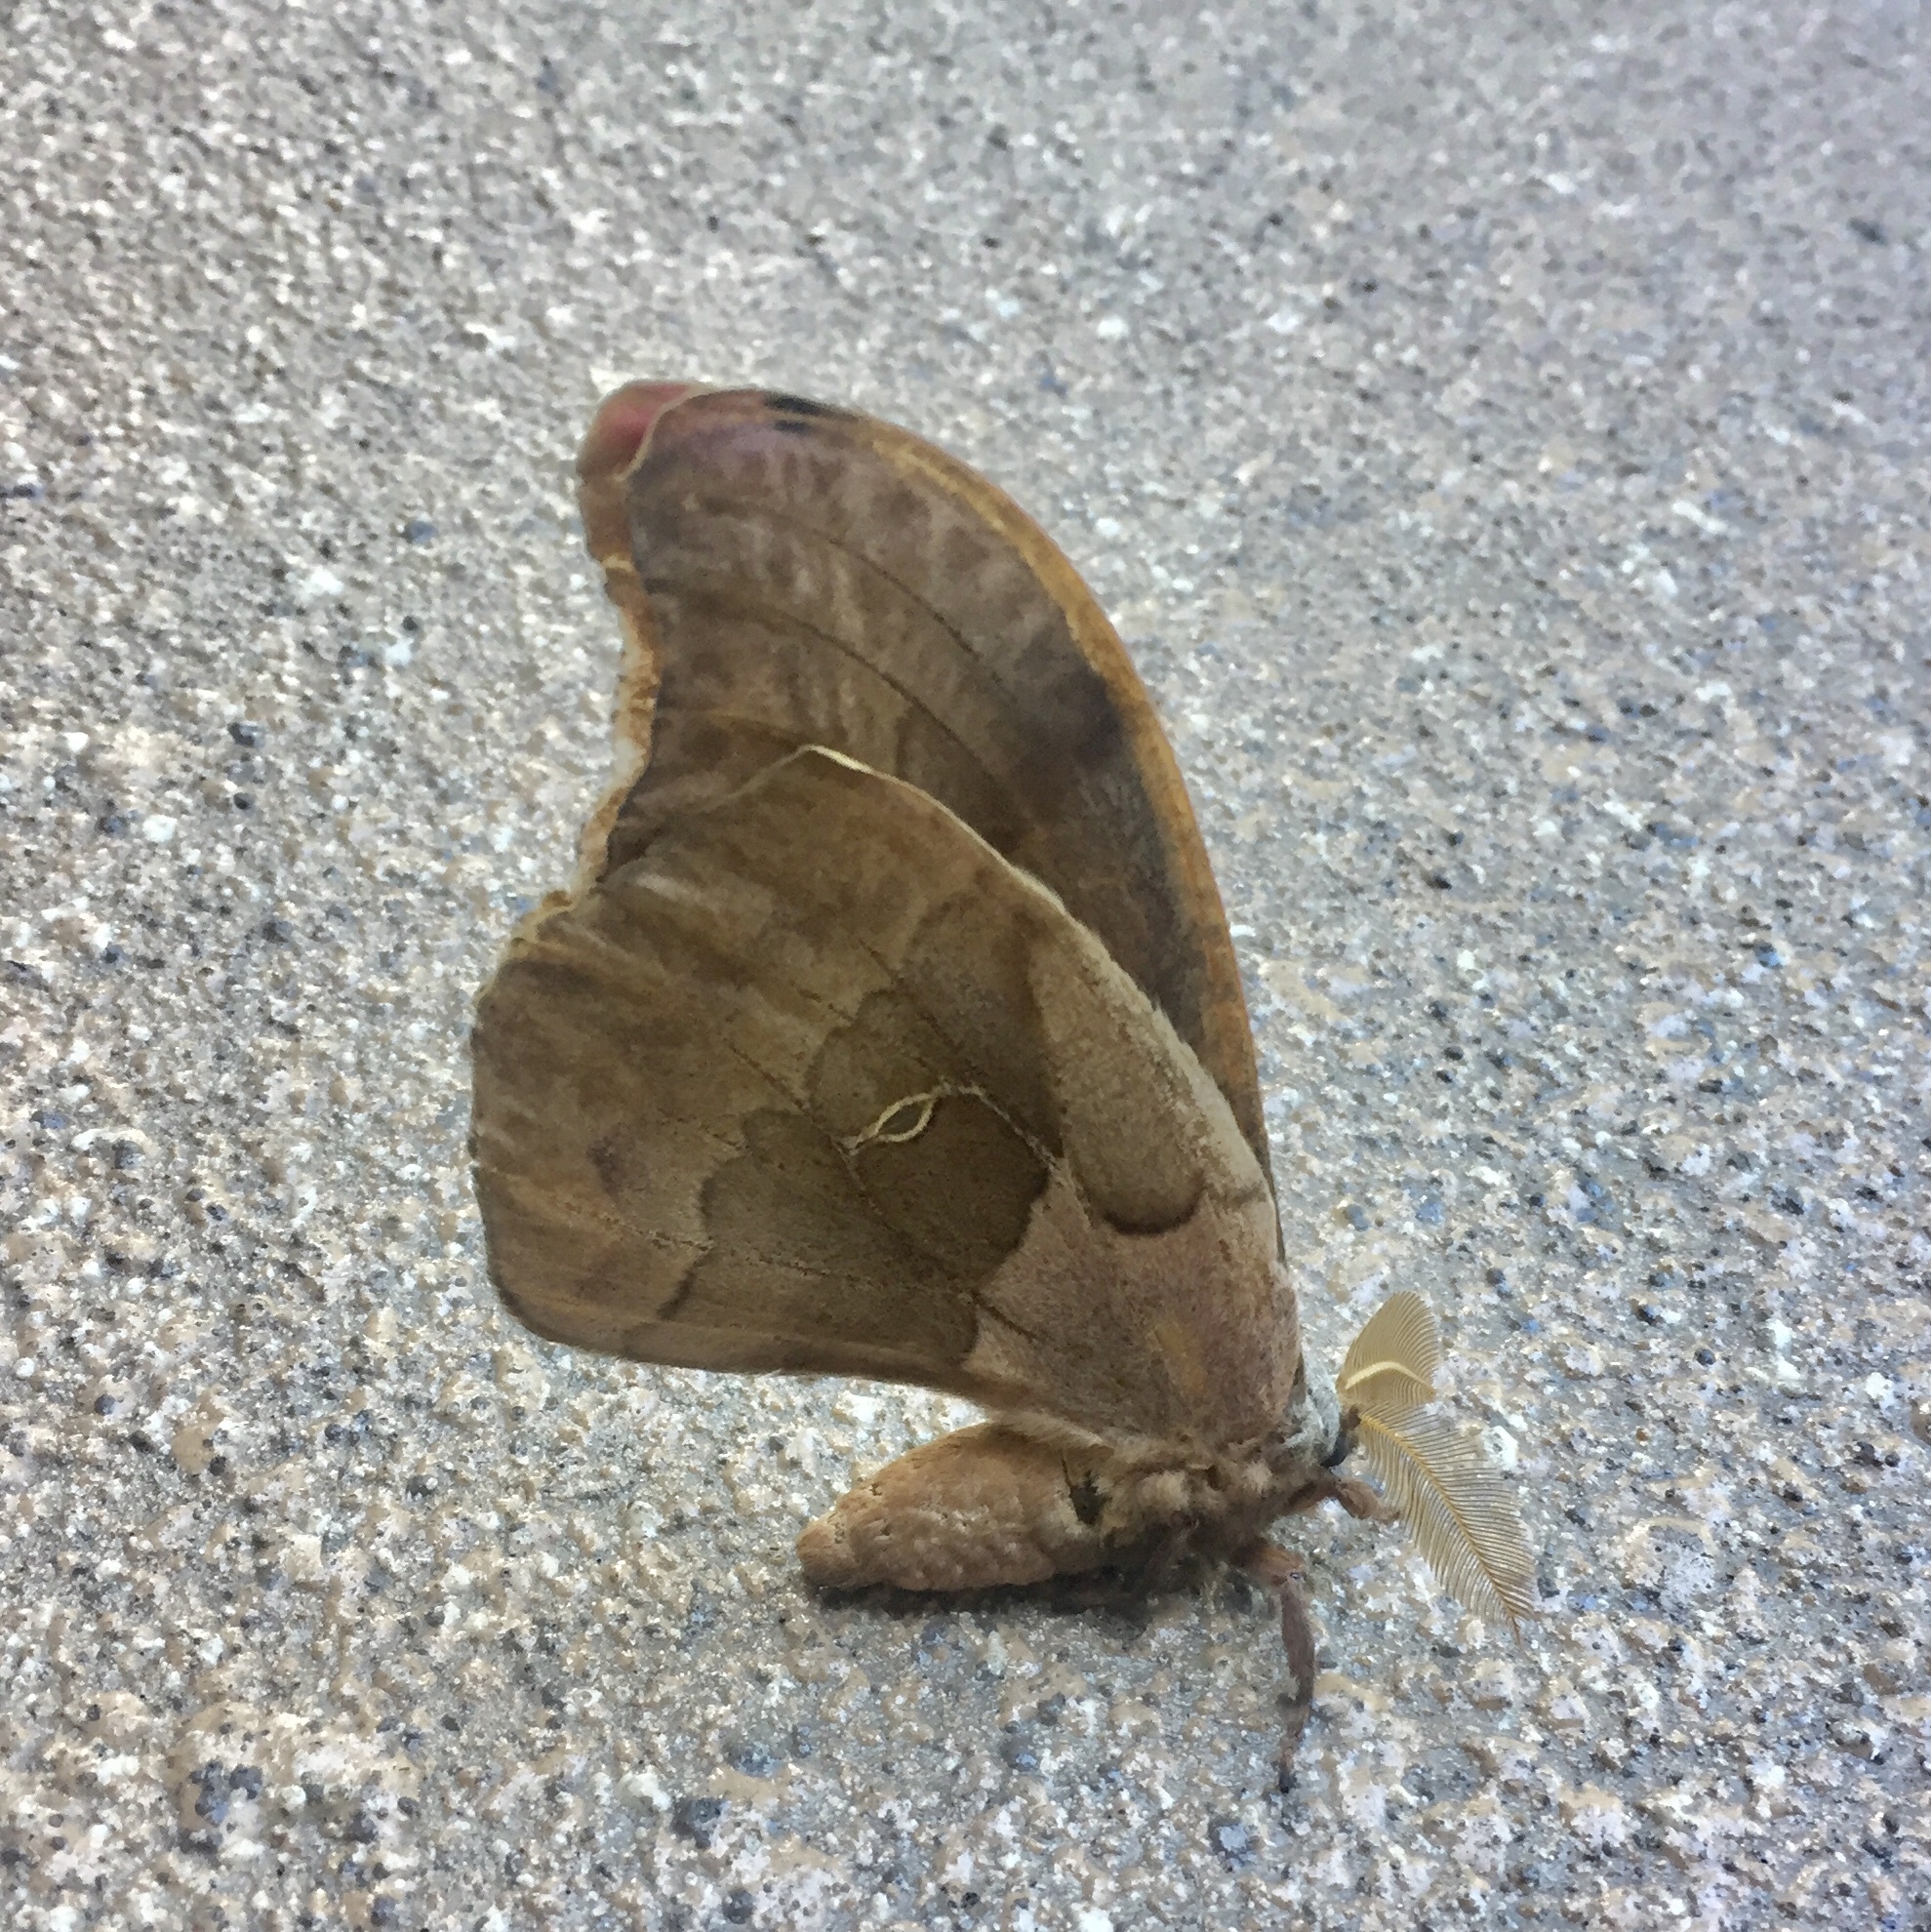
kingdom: Animalia
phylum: Arthropoda
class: Insecta
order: Lepidoptera
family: Saturniidae
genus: Antheraea
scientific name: Antheraea polyphemus
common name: Polyphemus moth
